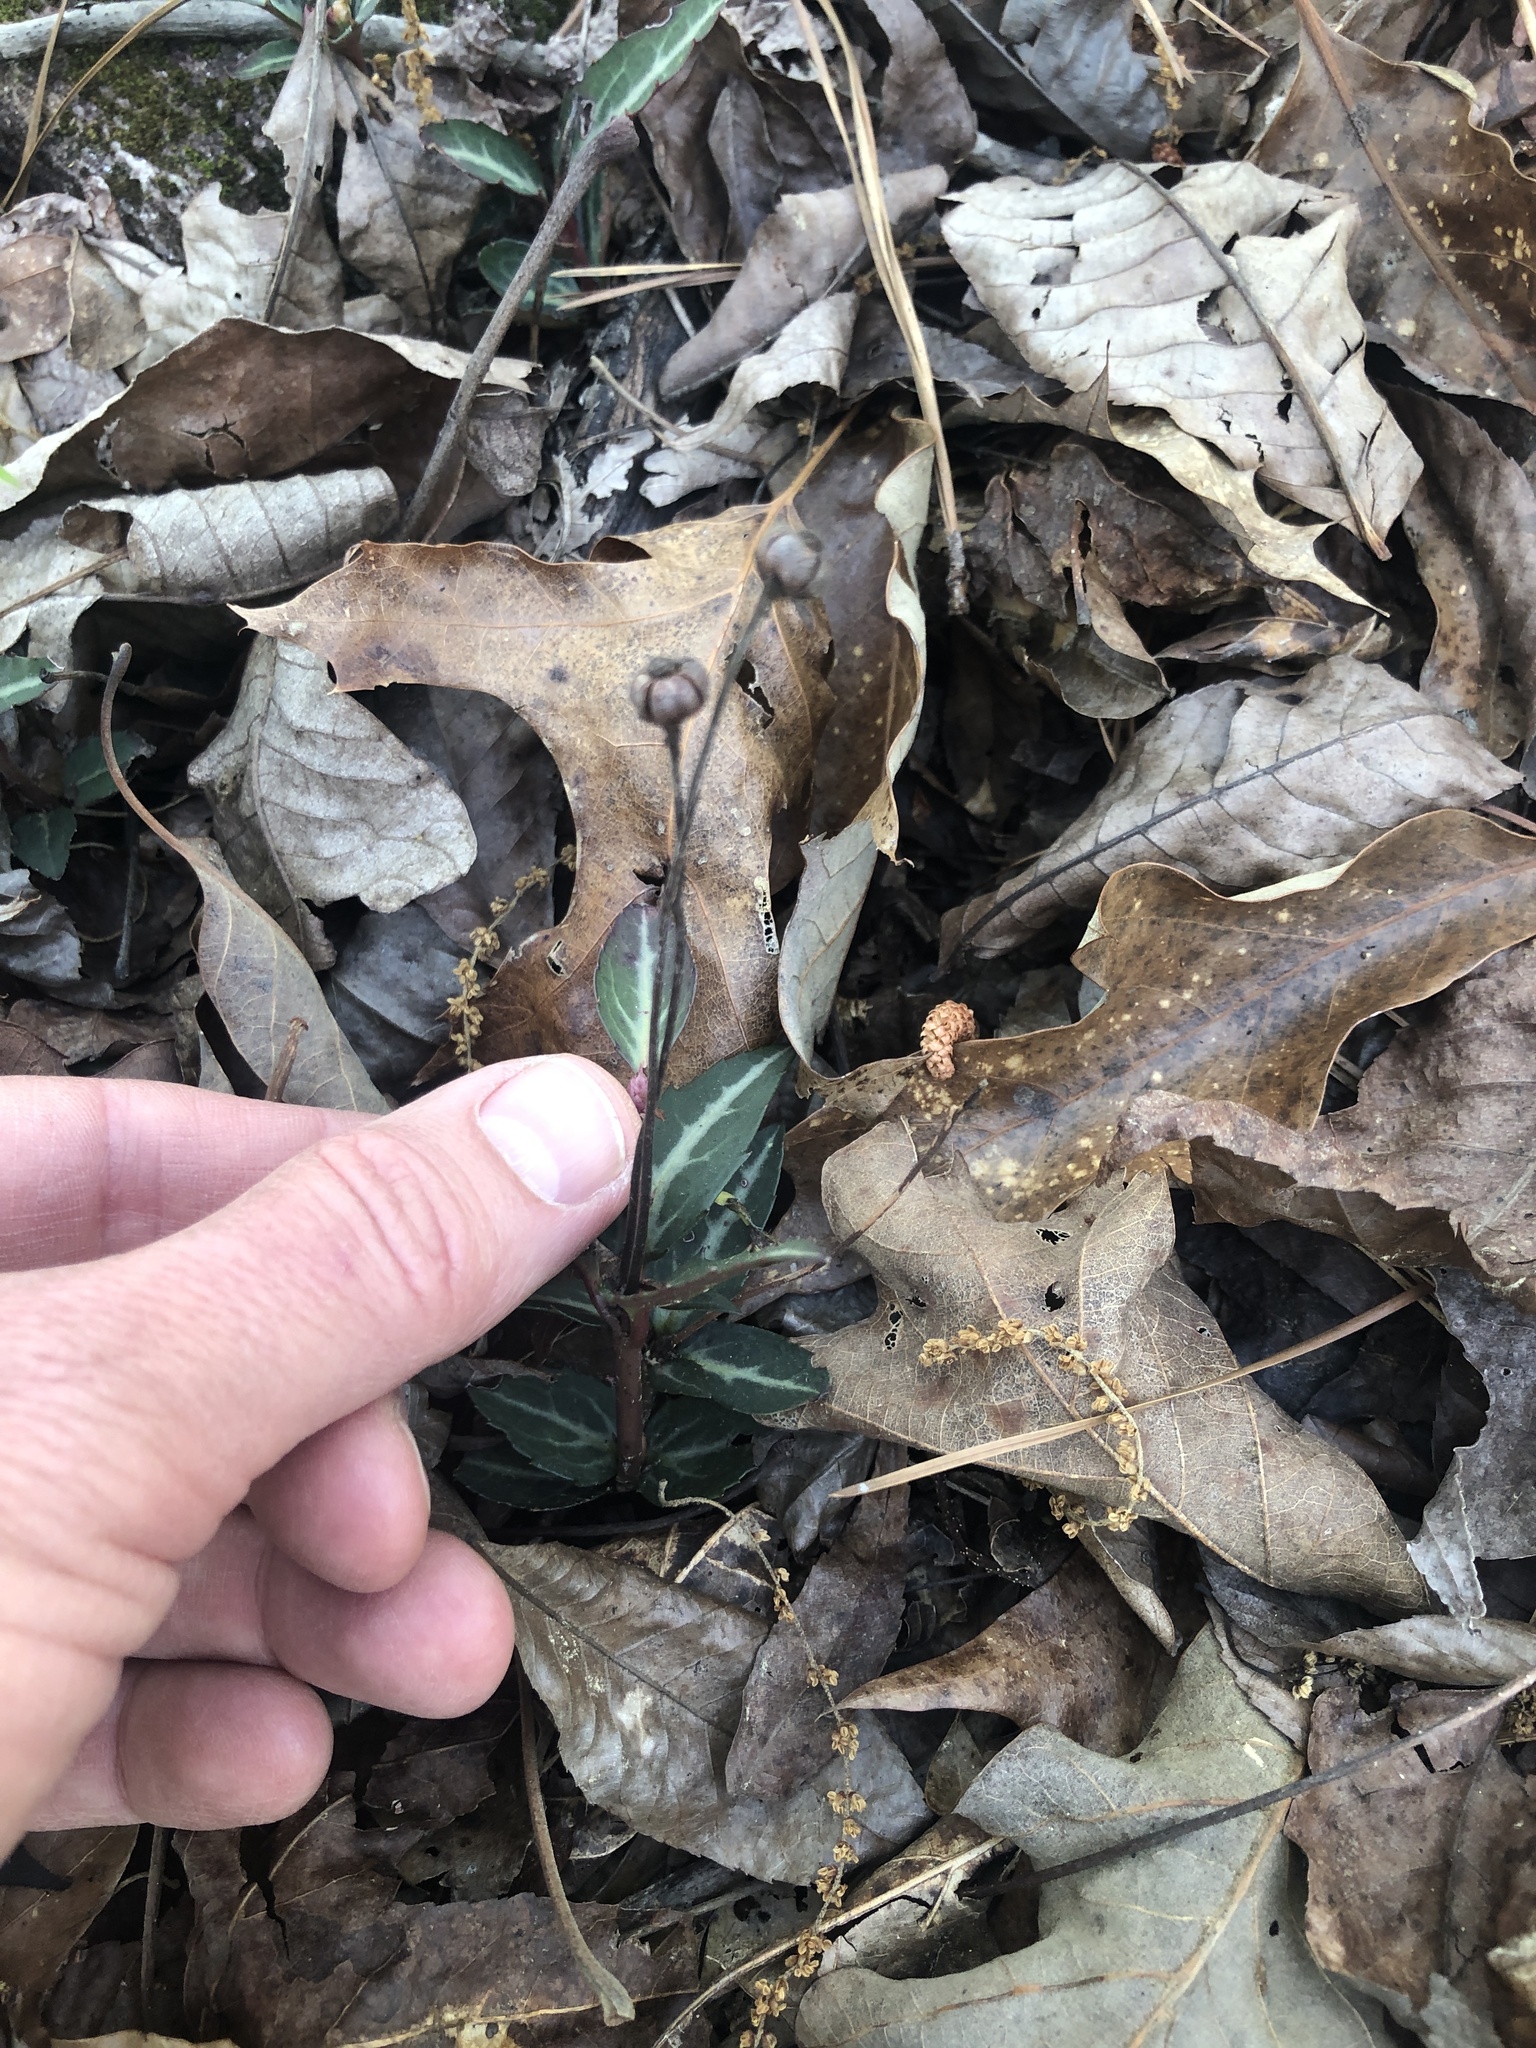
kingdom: Plantae
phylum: Tracheophyta
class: Magnoliopsida
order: Ericales
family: Ericaceae
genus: Chimaphila
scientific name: Chimaphila maculata
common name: Spotted pipsissewa
